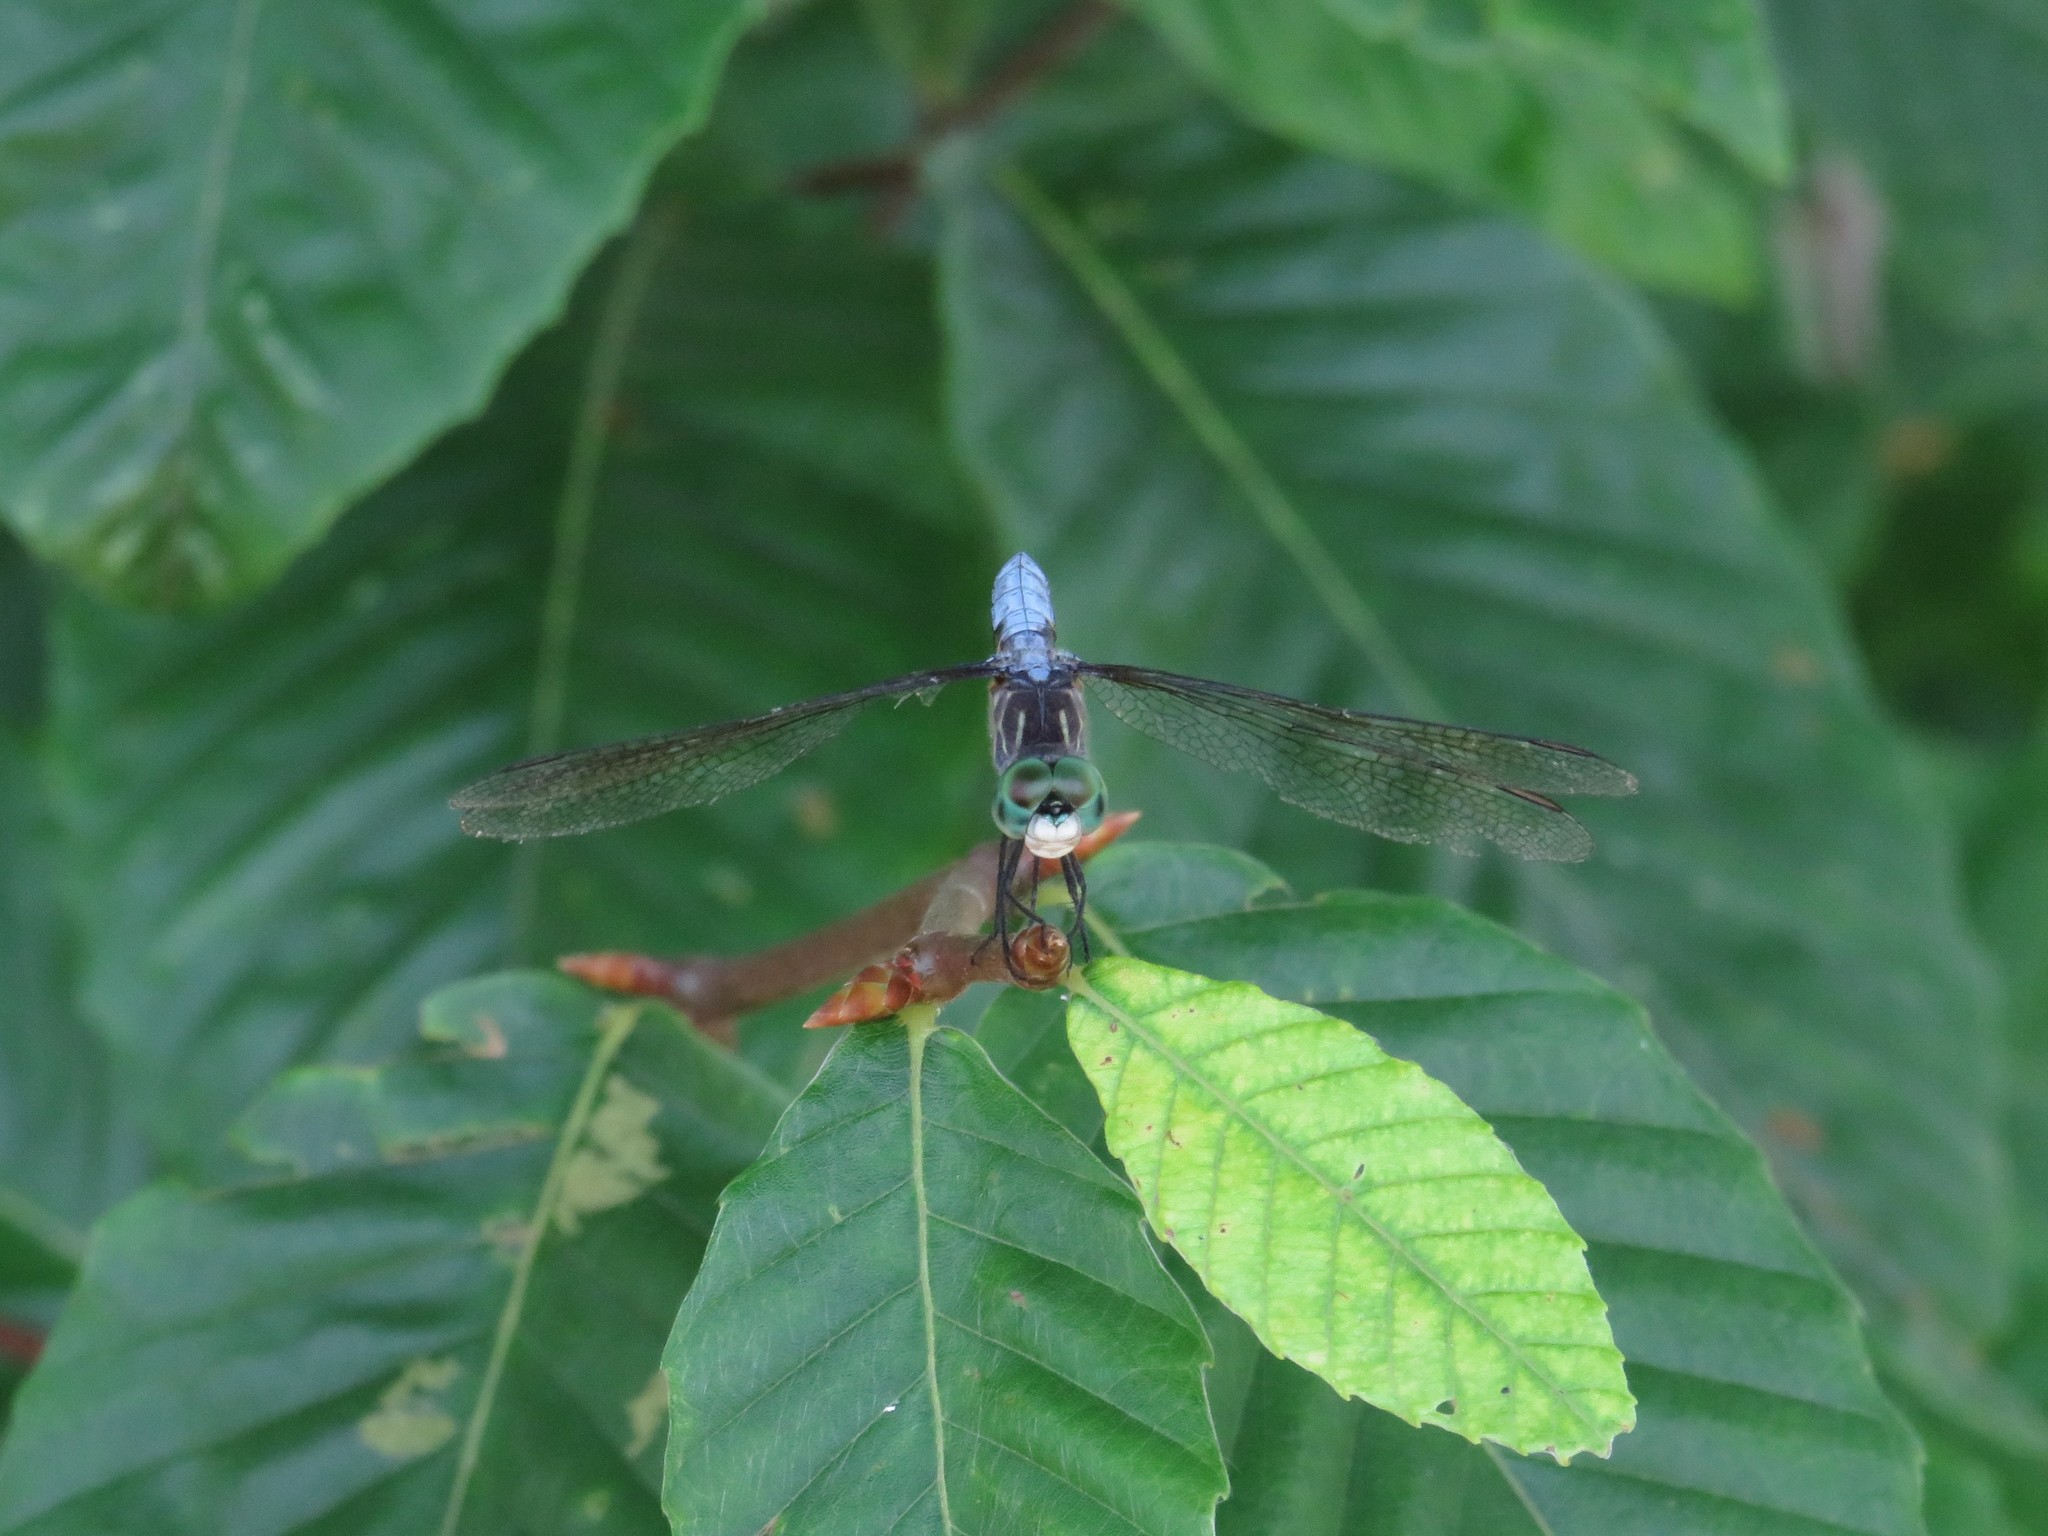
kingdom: Animalia
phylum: Arthropoda
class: Insecta
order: Odonata
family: Libellulidae
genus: Pachydiplax
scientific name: Pachydiplax longipennis
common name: Blue dasher
